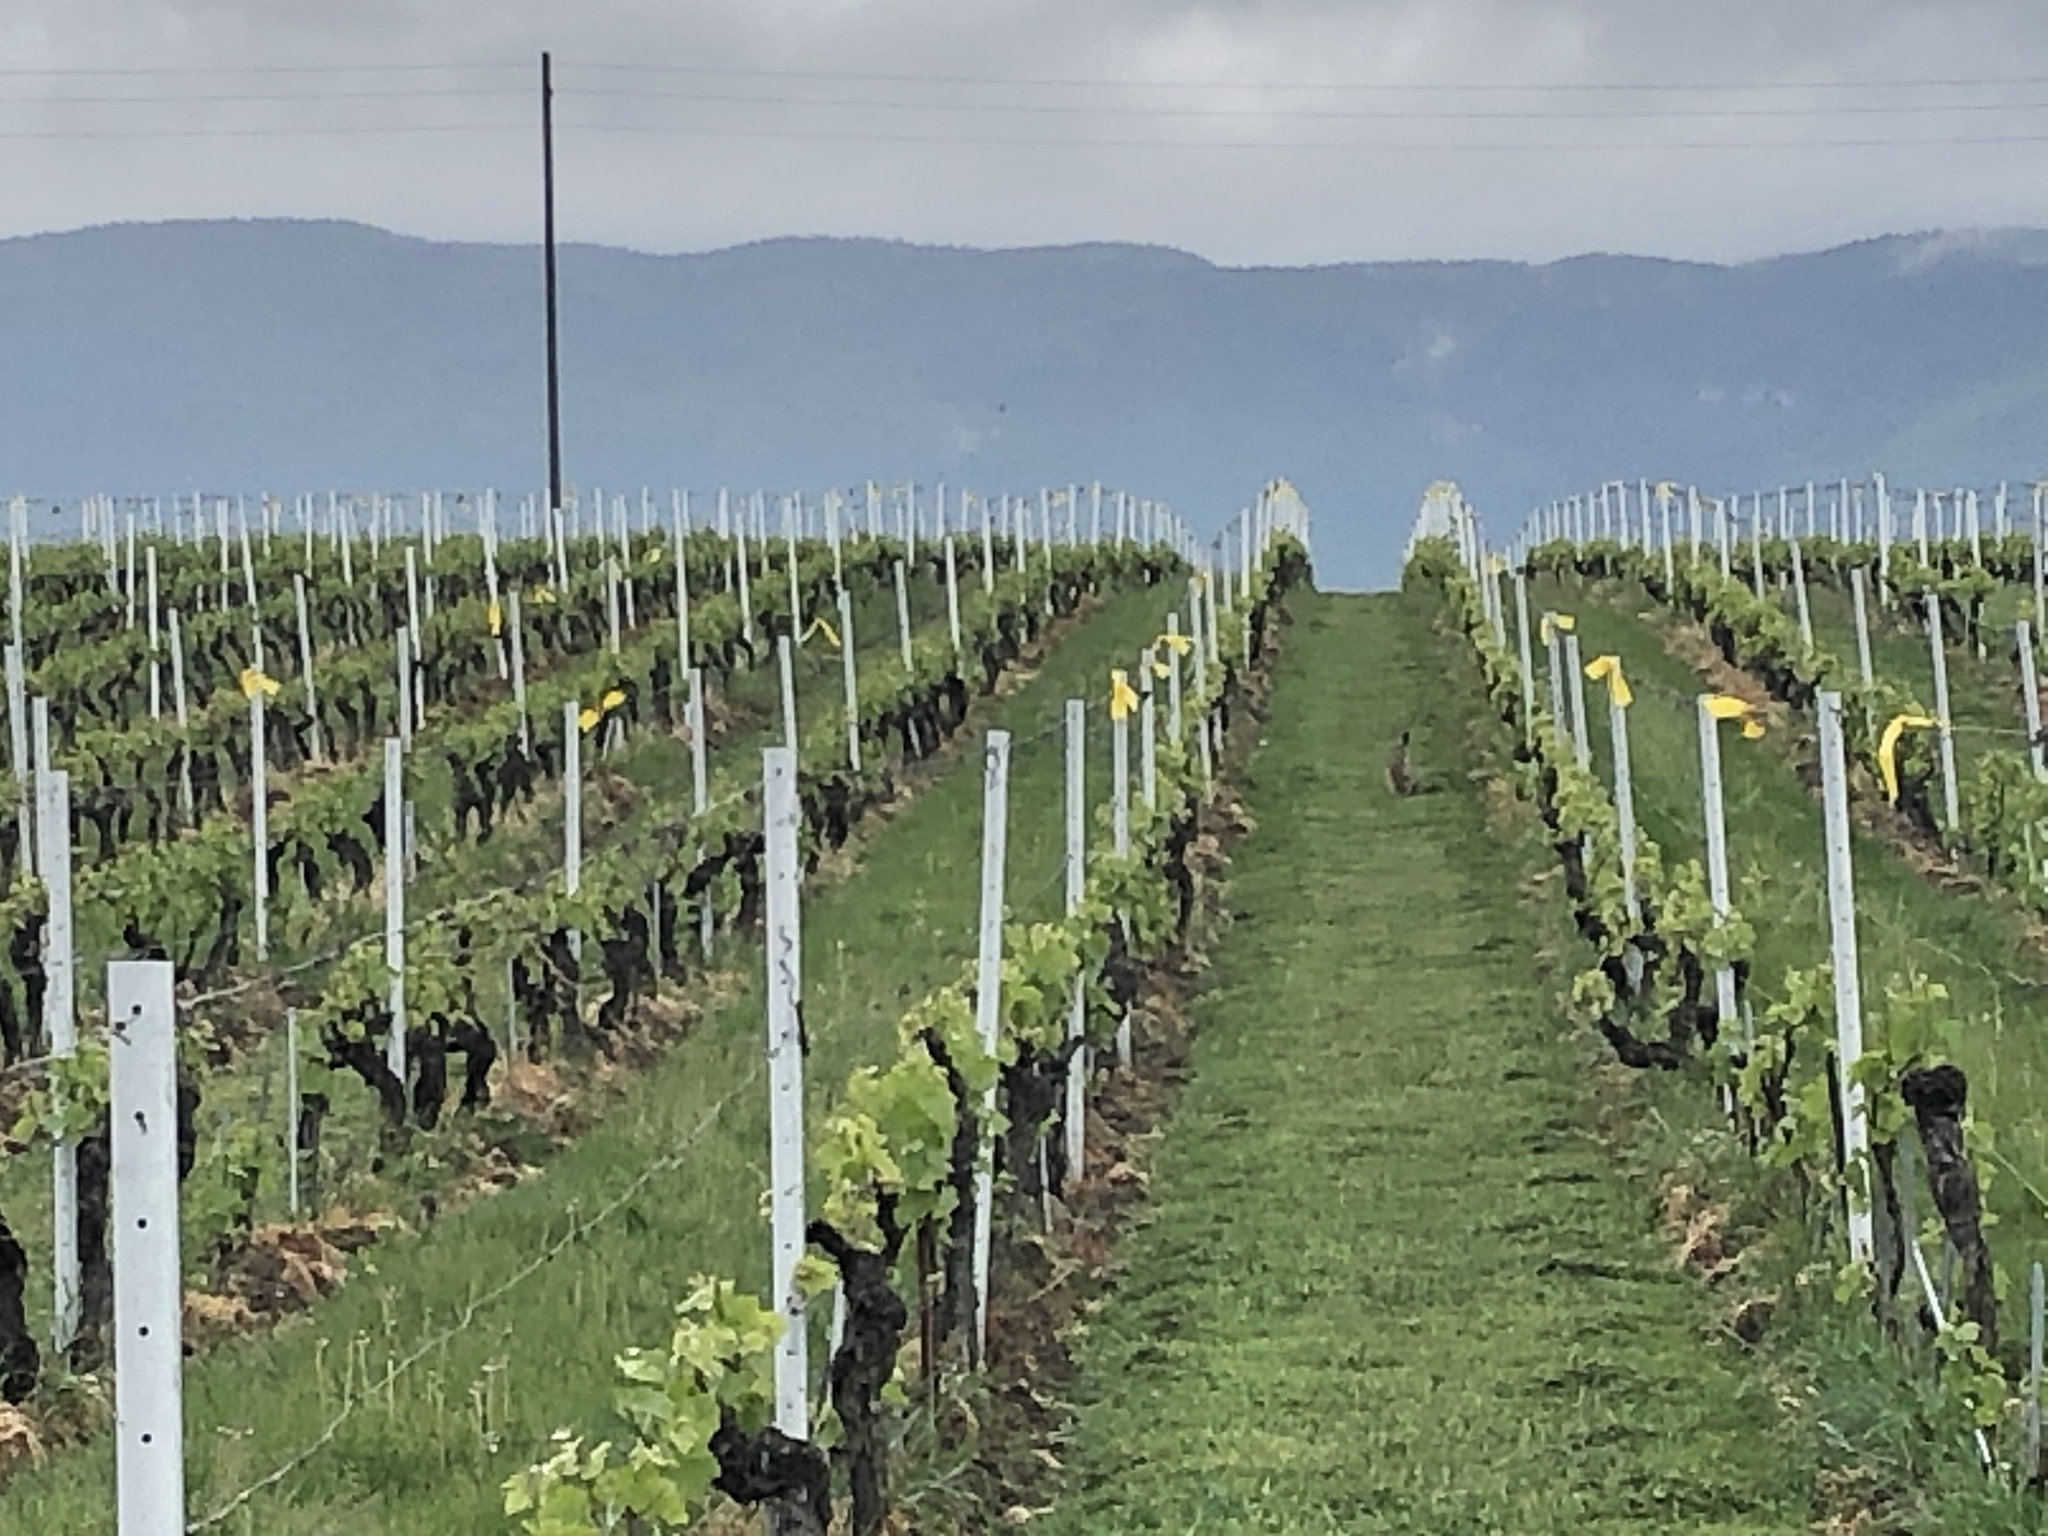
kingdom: Animalia
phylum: Chordata
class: Mammalia
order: Lagomorpha
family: Leporidae
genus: Lepus
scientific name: Lepus europaeus
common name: European hare
